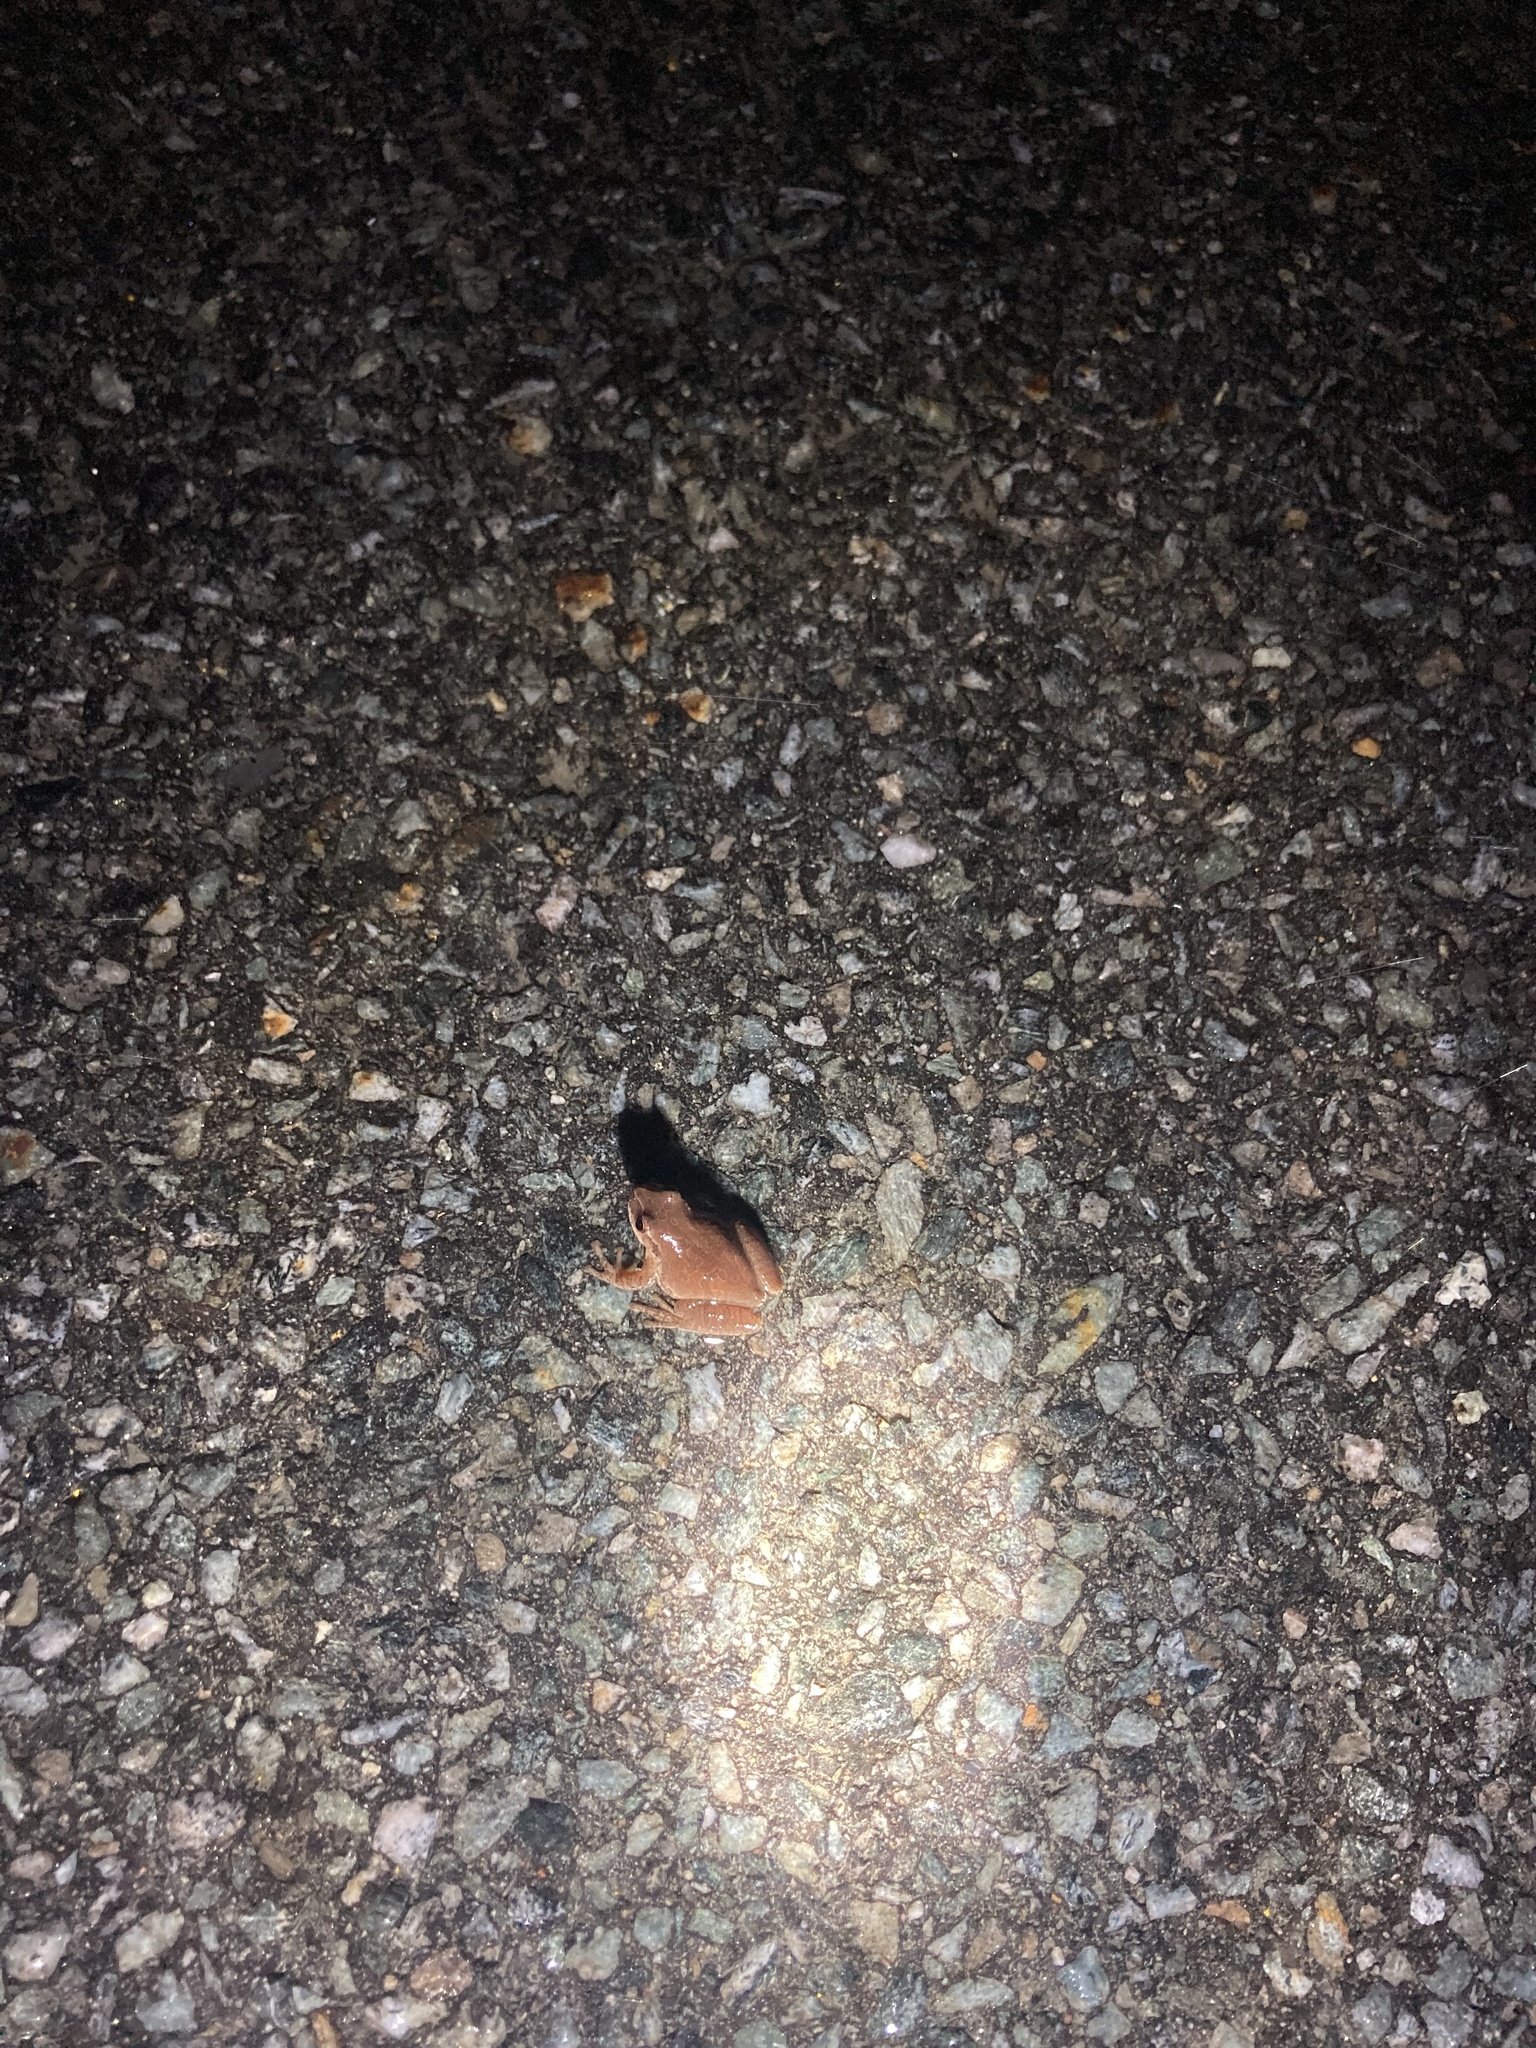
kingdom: Animalia
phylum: Chordata
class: Amphibia
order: Anura
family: Hylidae
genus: Pseudacris
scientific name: Pseudacris crucifer
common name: Spring peeper
